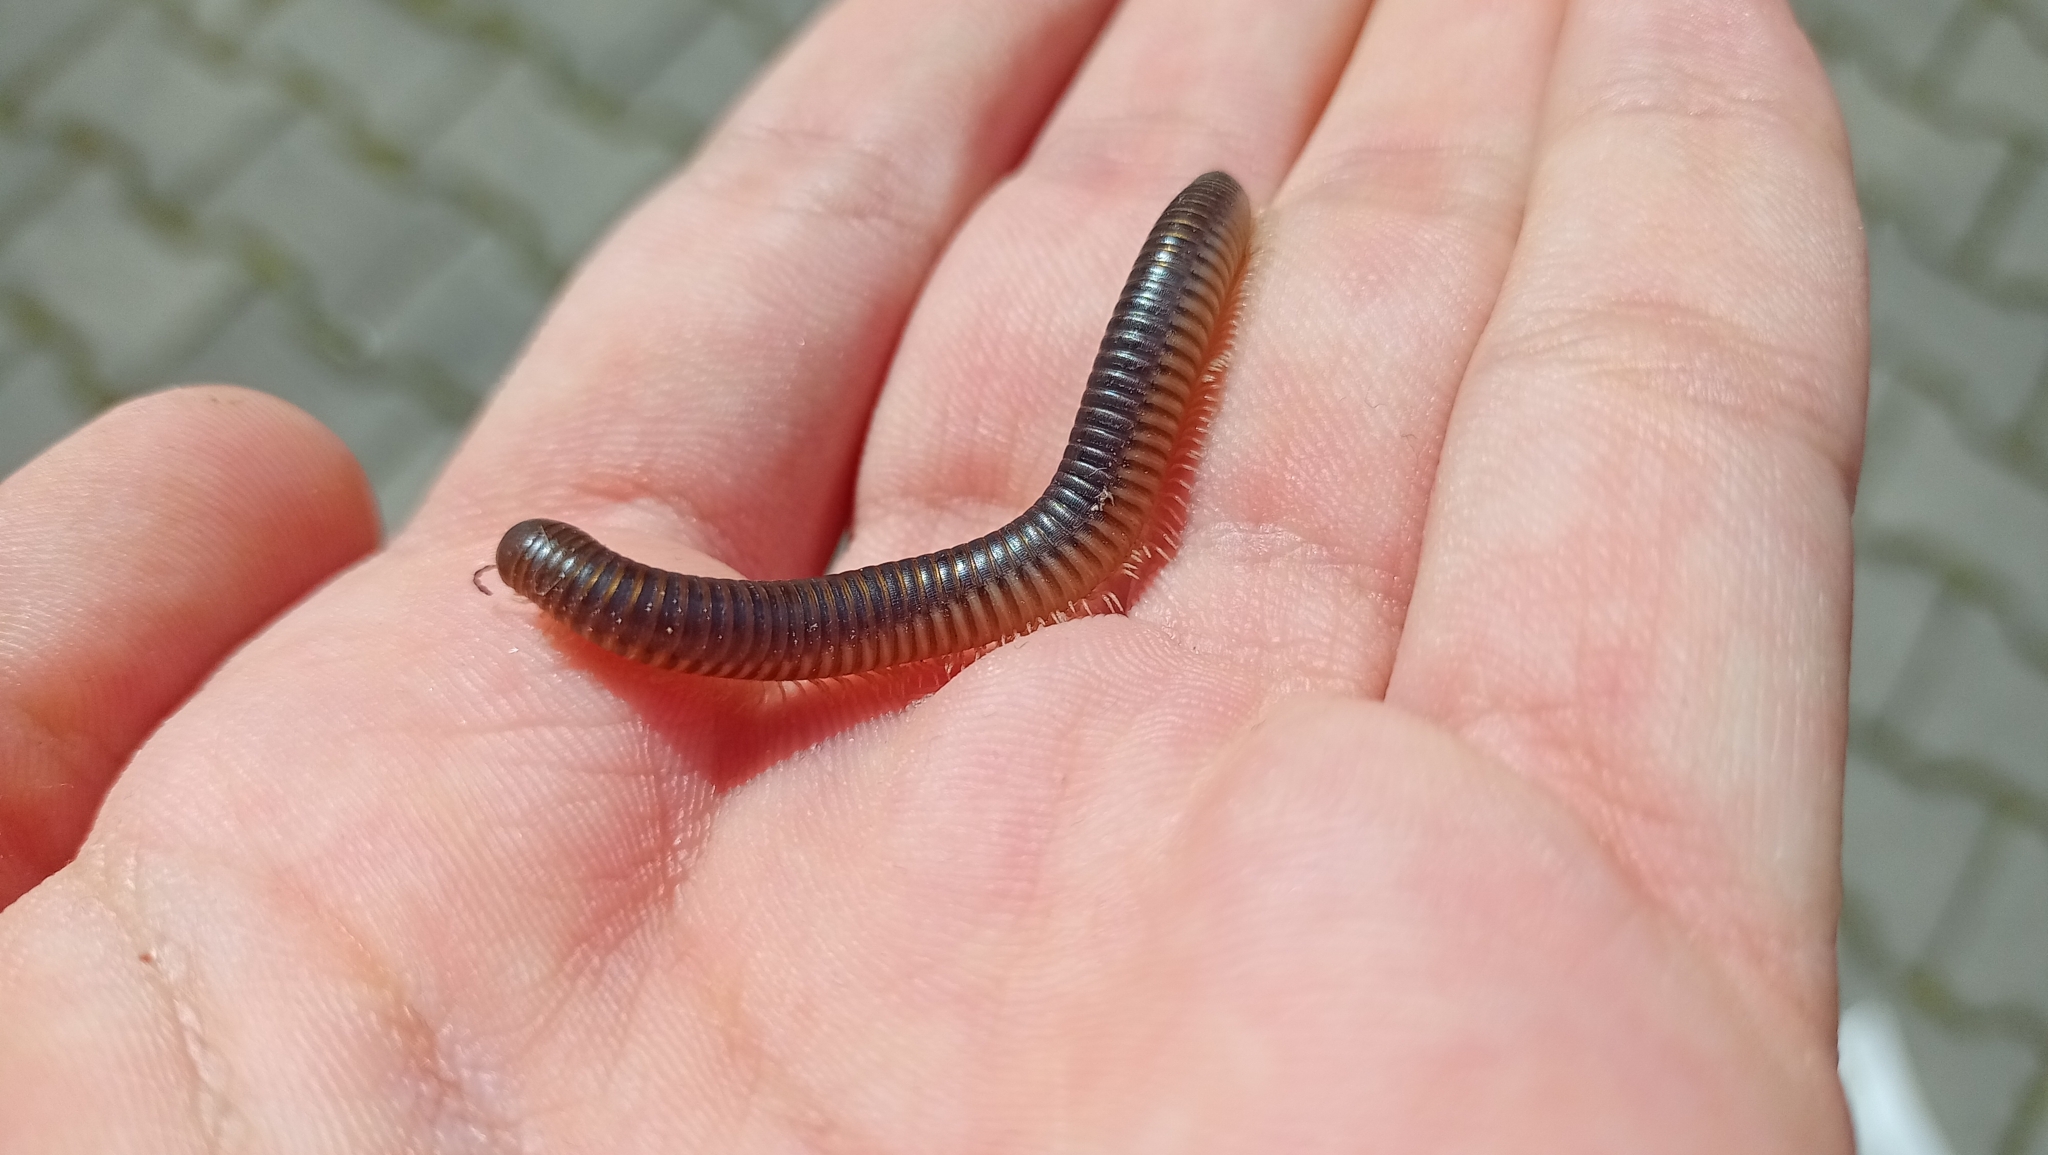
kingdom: Animalia
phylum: Arthropoda
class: Diplopoda
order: Julida
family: Julidae
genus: Pachyiulus
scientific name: Pachyiulus flavipes
